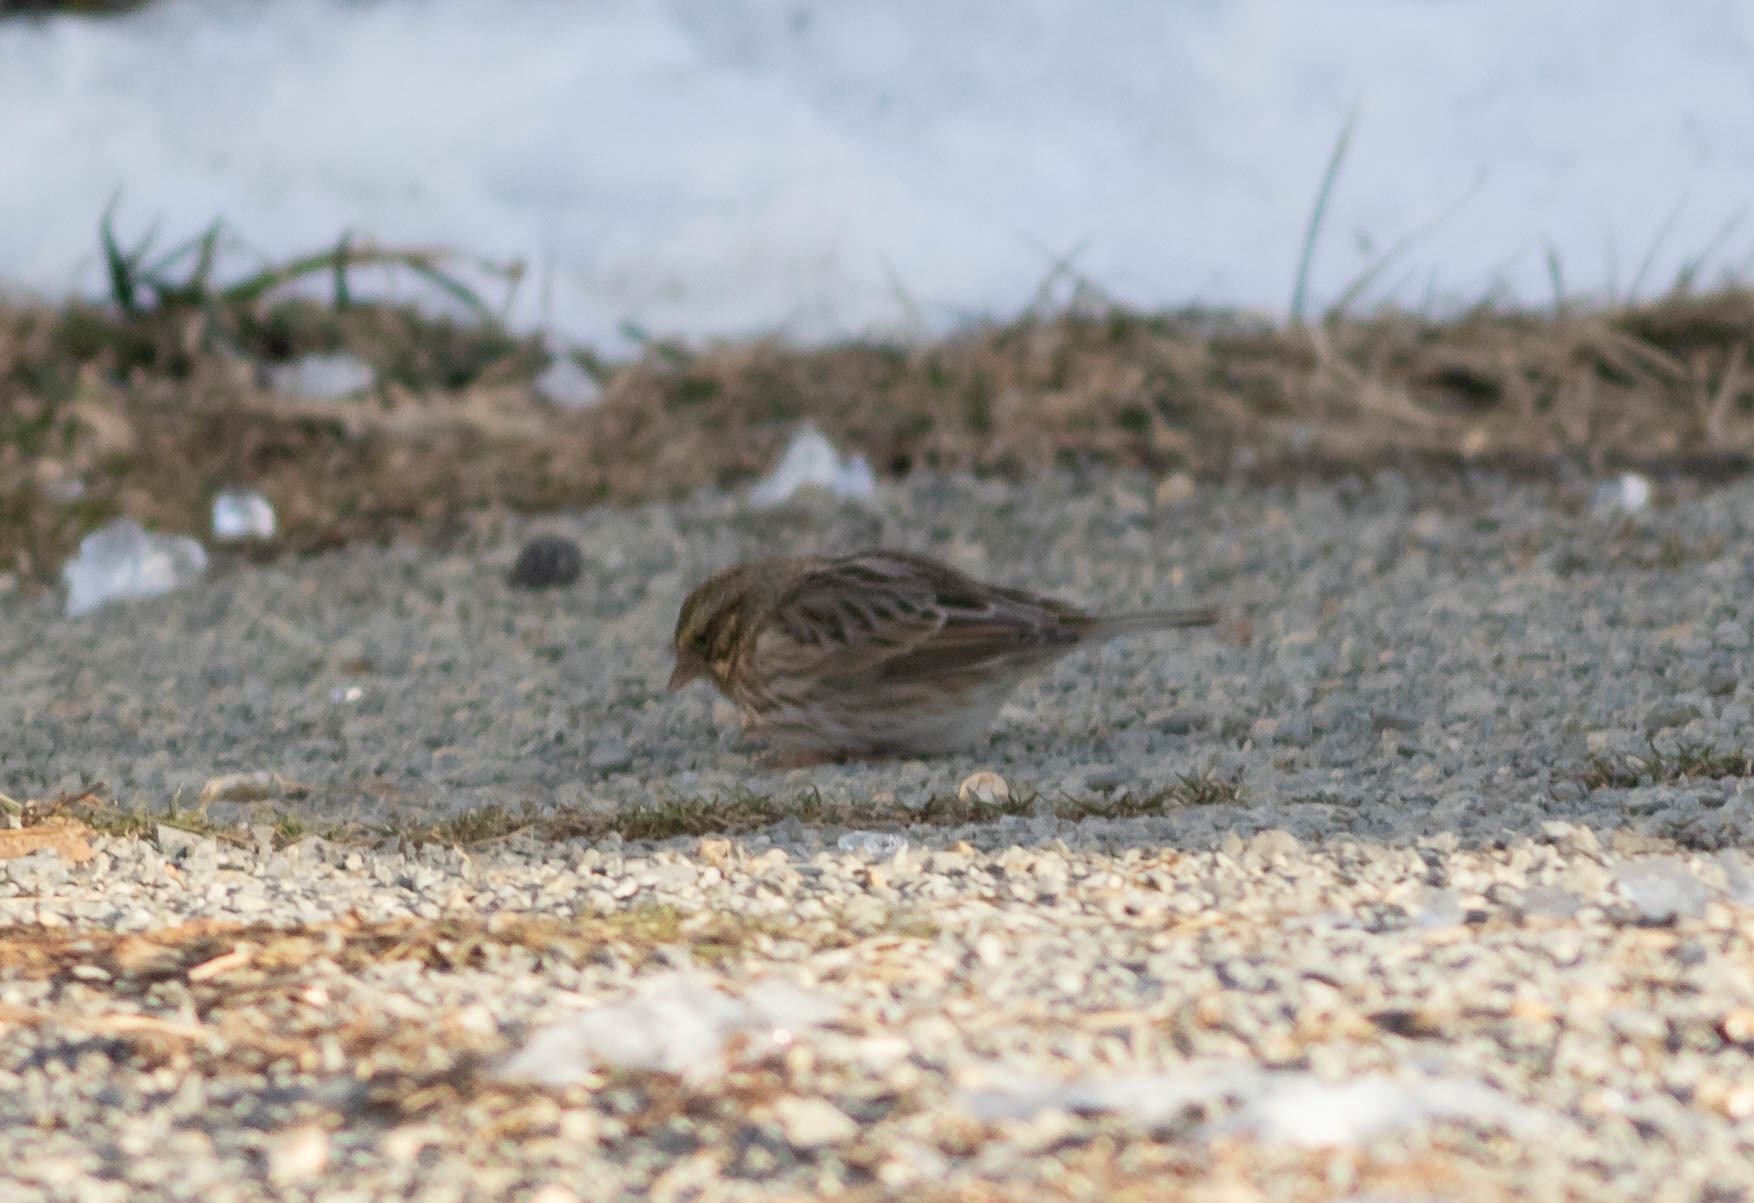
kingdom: Animalia
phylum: Chordata
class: Aves
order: Passeriformes
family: Passerellidae
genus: Passerculus
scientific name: Passerculus sandwichensis
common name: Savannah sparrow
